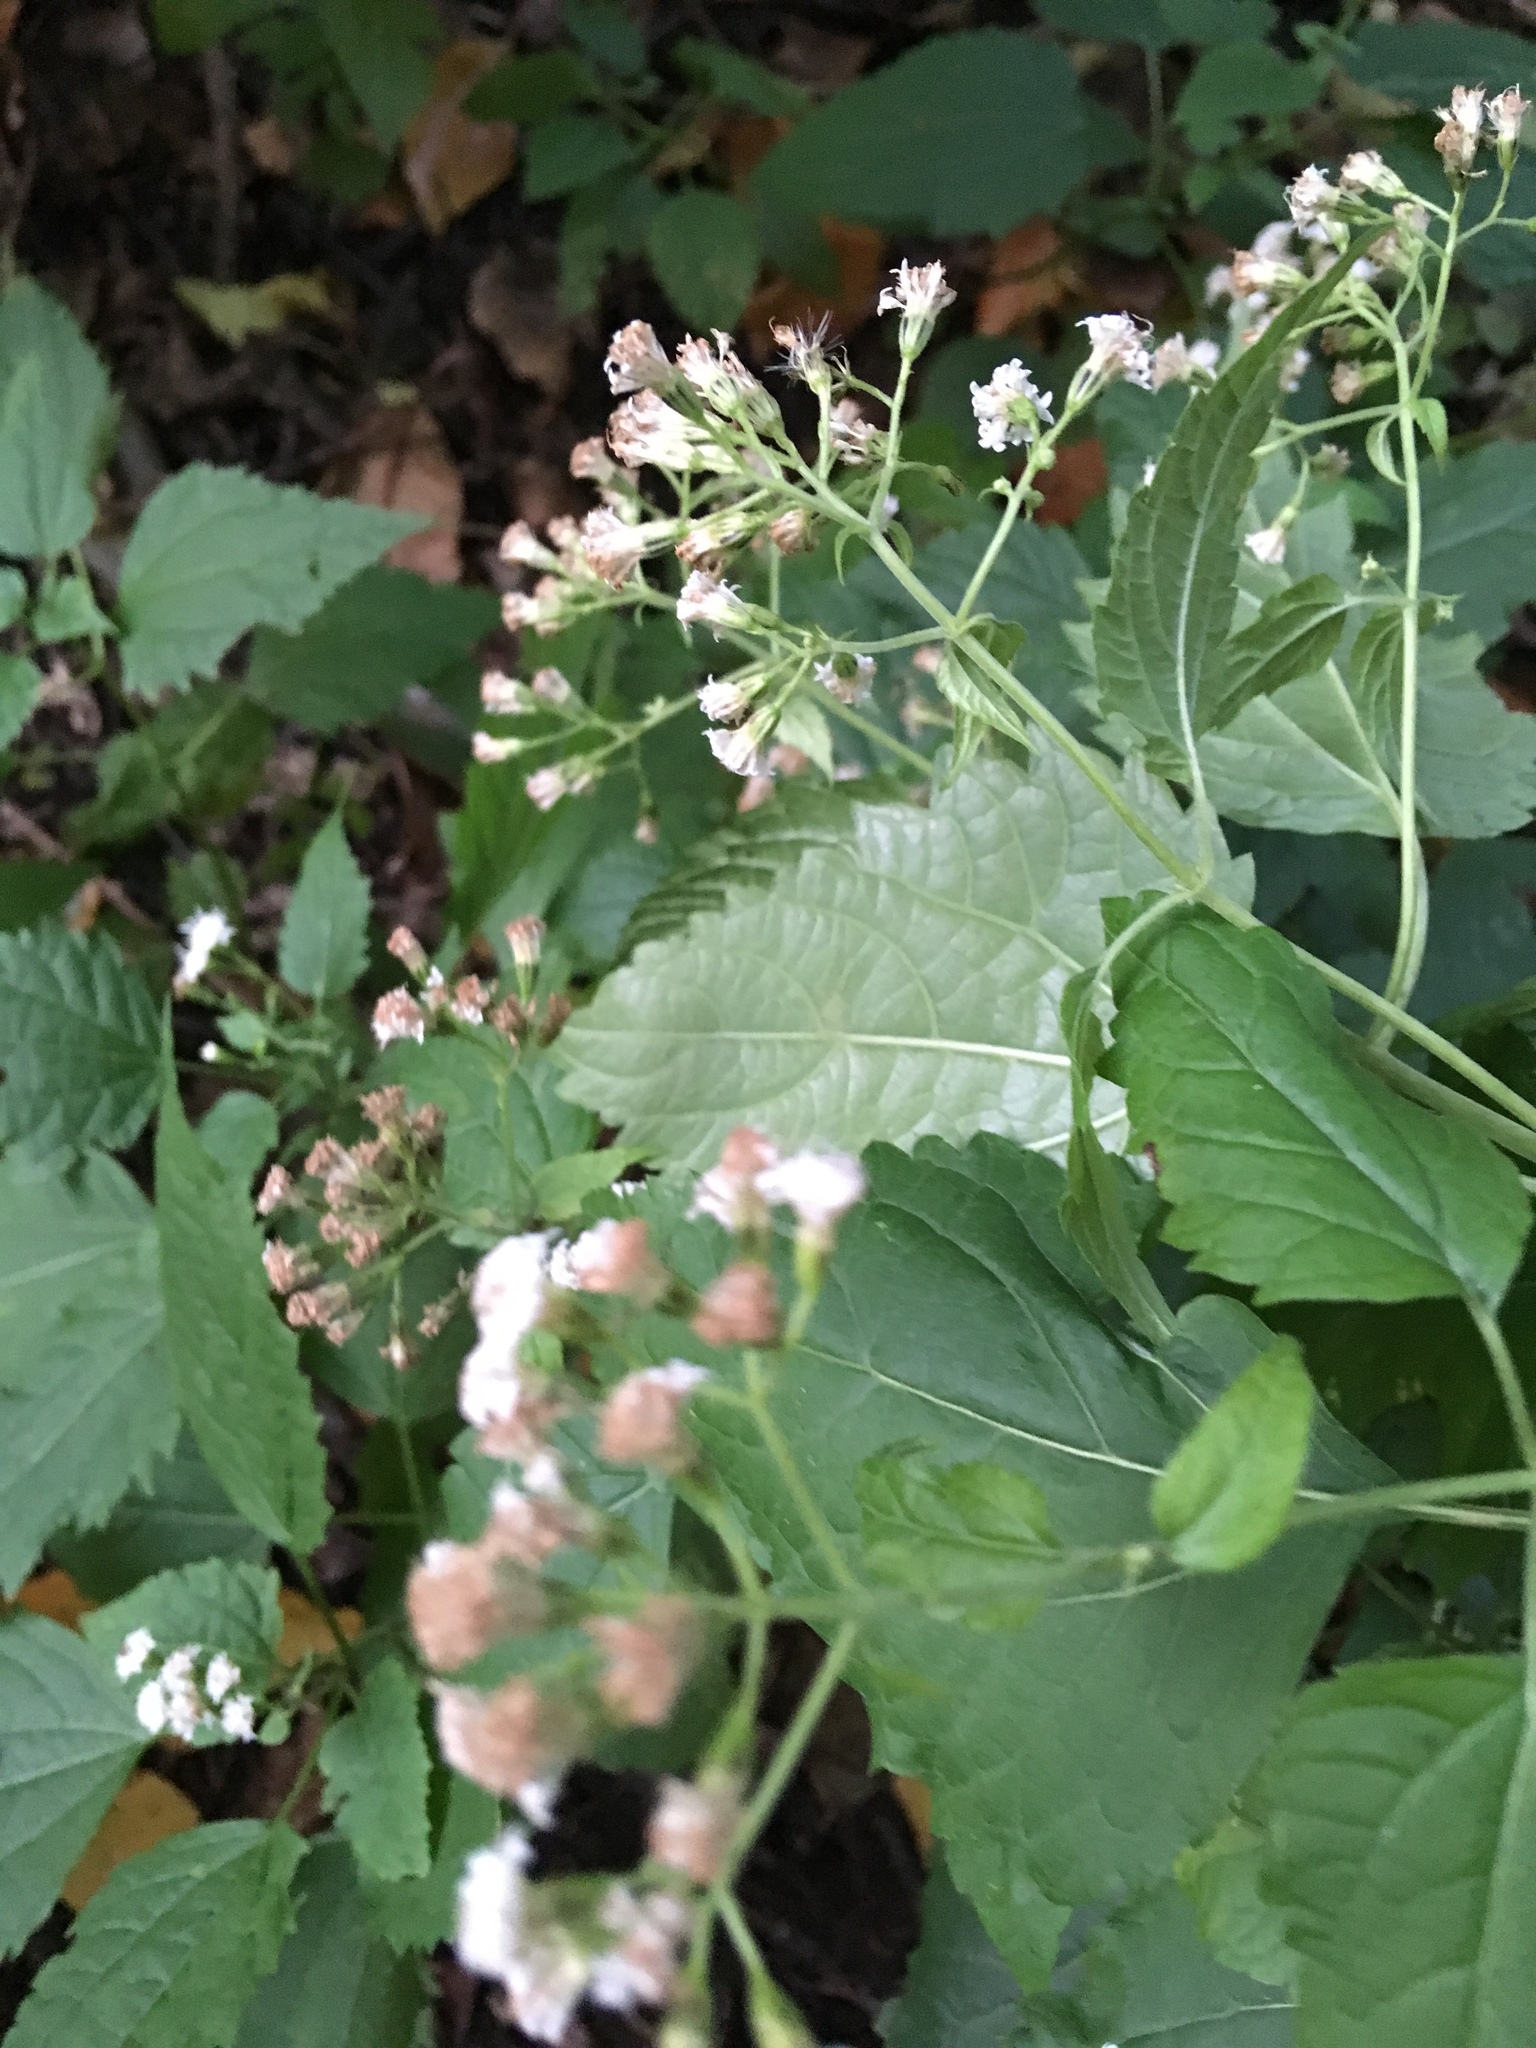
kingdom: Plantae
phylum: Tracheophyta
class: Magnoliopsida
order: Asterales
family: Asteraceae
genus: Ageratina
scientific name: Ageratina altissima
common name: White snakeroot
